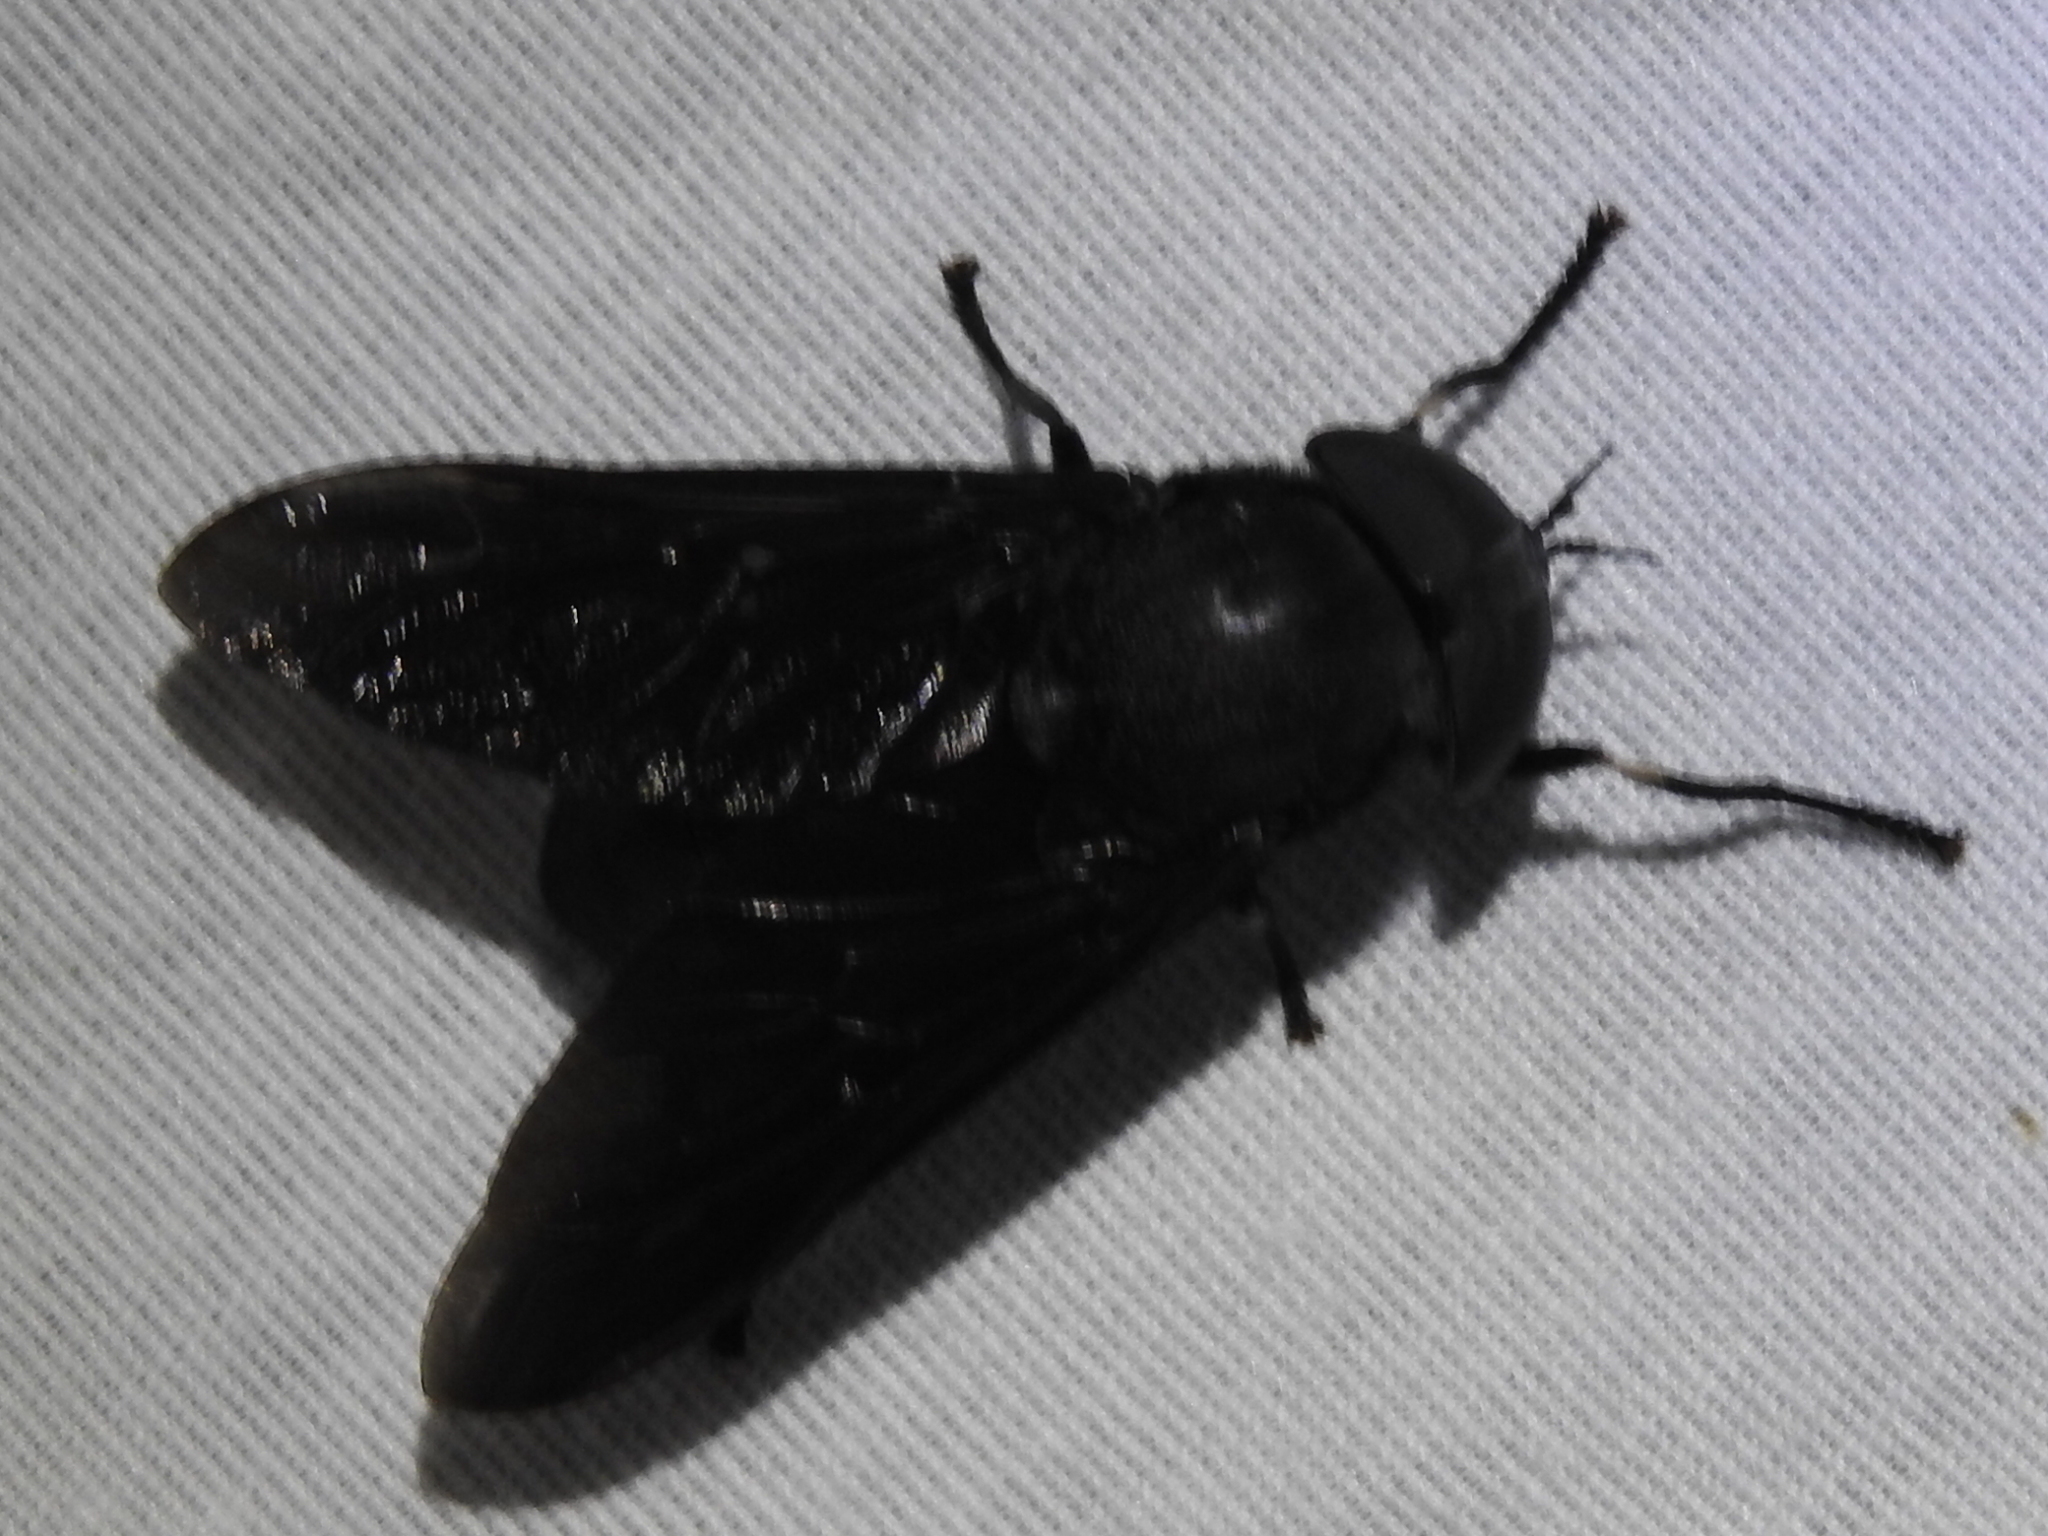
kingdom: Animalia
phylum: Arthropoda
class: Insecta
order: Diptera
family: Tabanidae
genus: Tabanus
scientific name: Tabanus atratus
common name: Black horse fly
